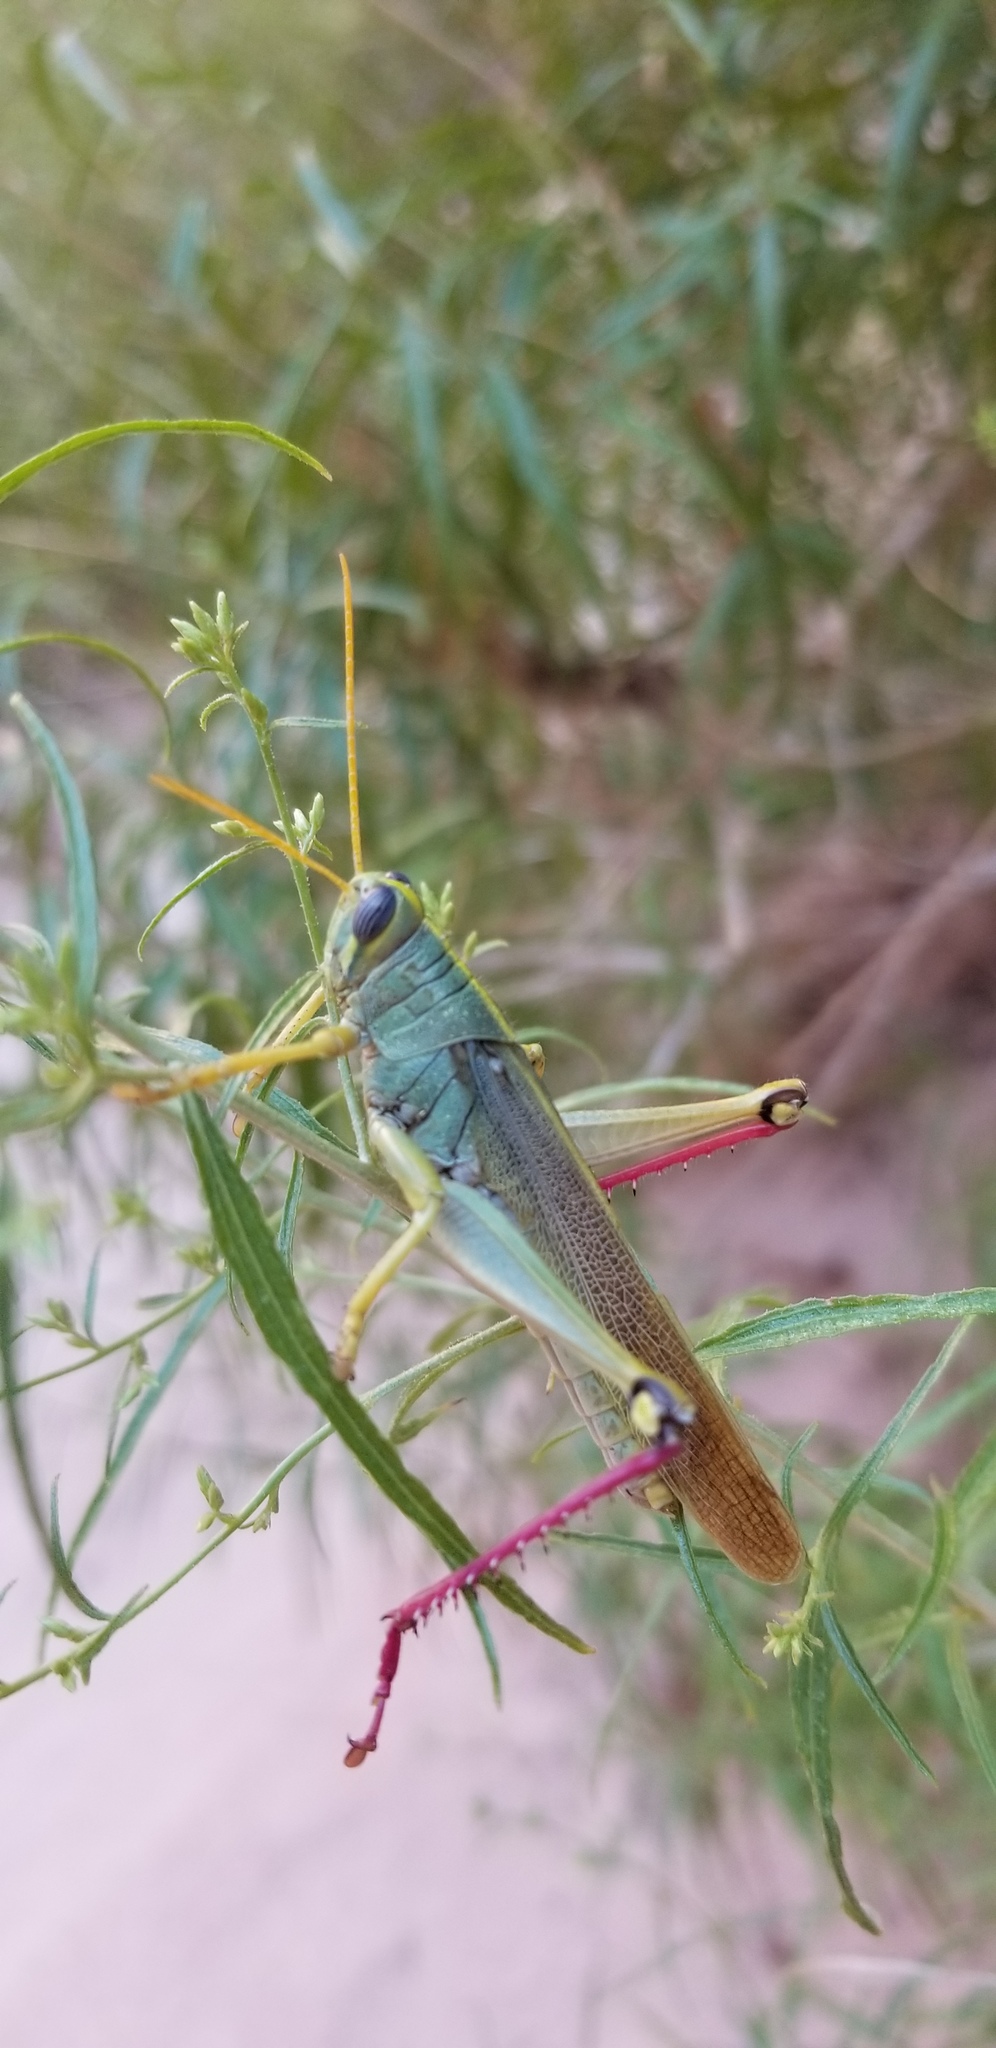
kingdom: Animalia
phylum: Arthropoda
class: Insecta
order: Orthoptera
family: Acrididae
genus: Schistocerca
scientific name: Schistocerca shoshone
